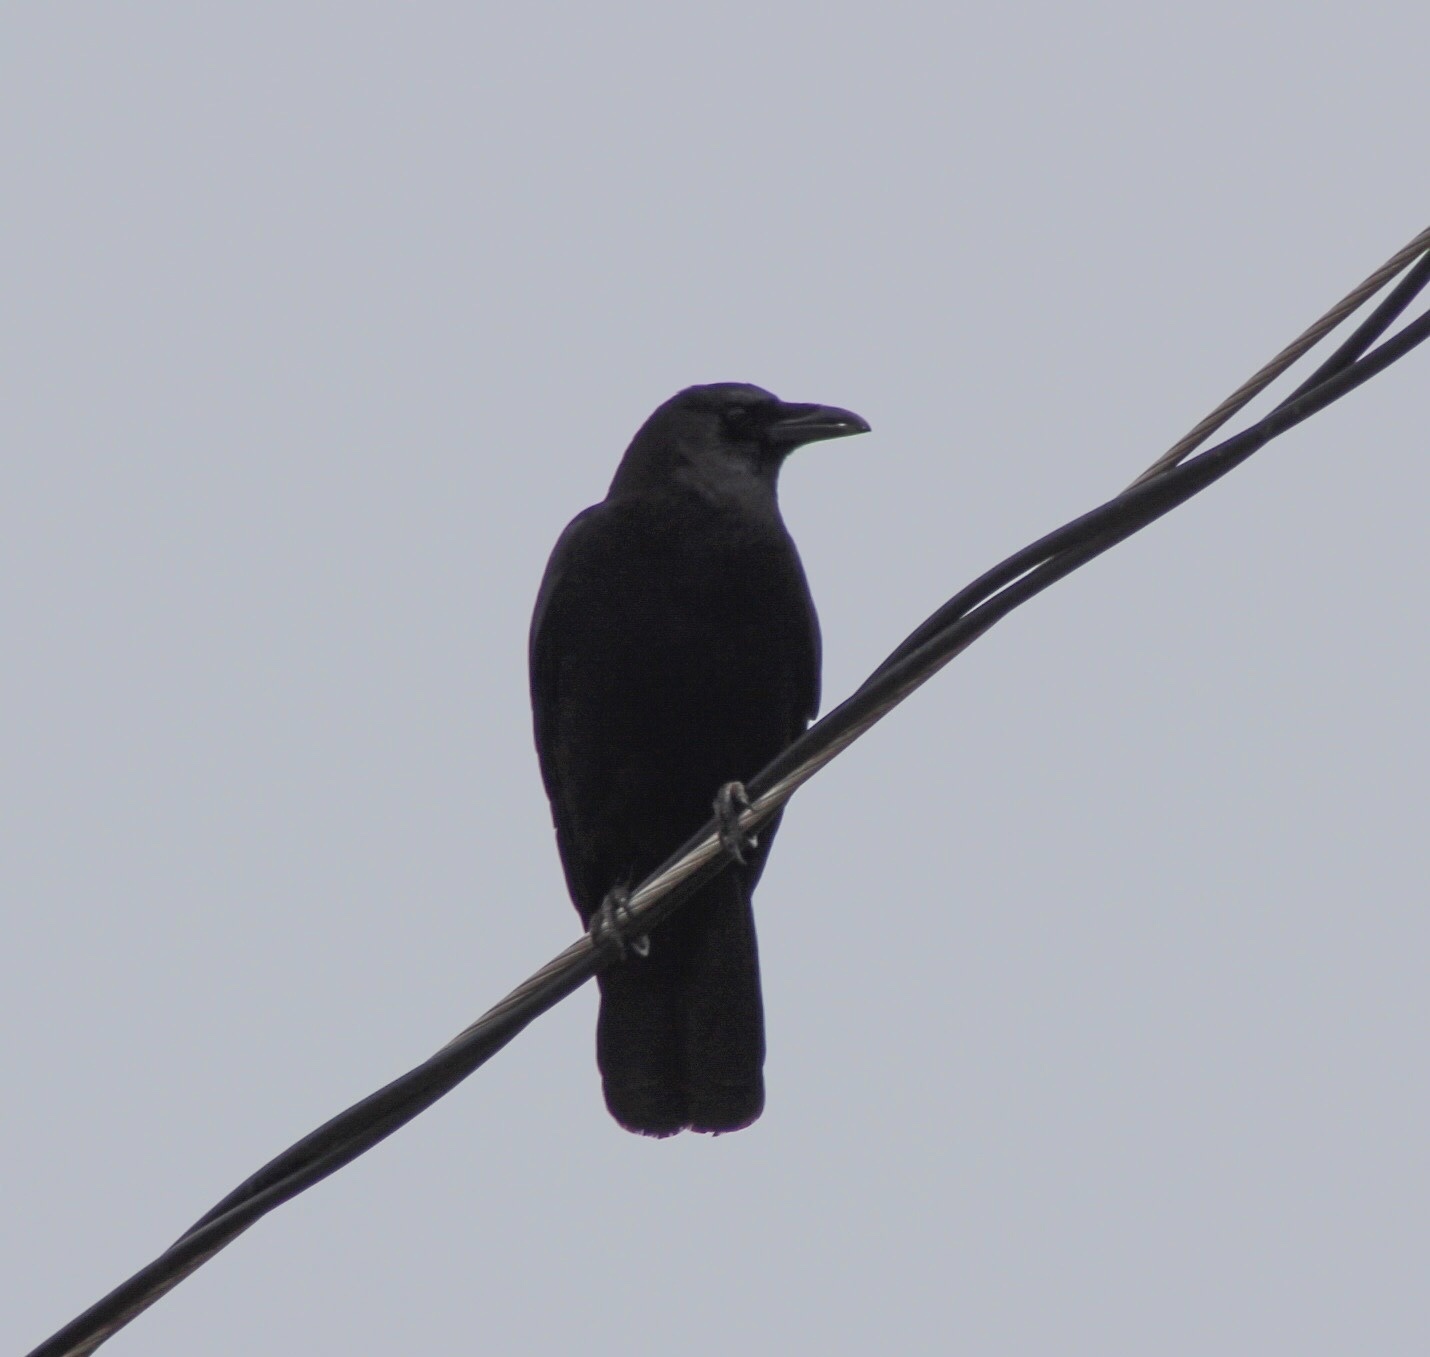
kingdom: Animalia
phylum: Chordata
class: Aves
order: Passeriformes
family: Corvidae
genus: Corvus
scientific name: Corvus brachyrhynchos
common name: American crow
